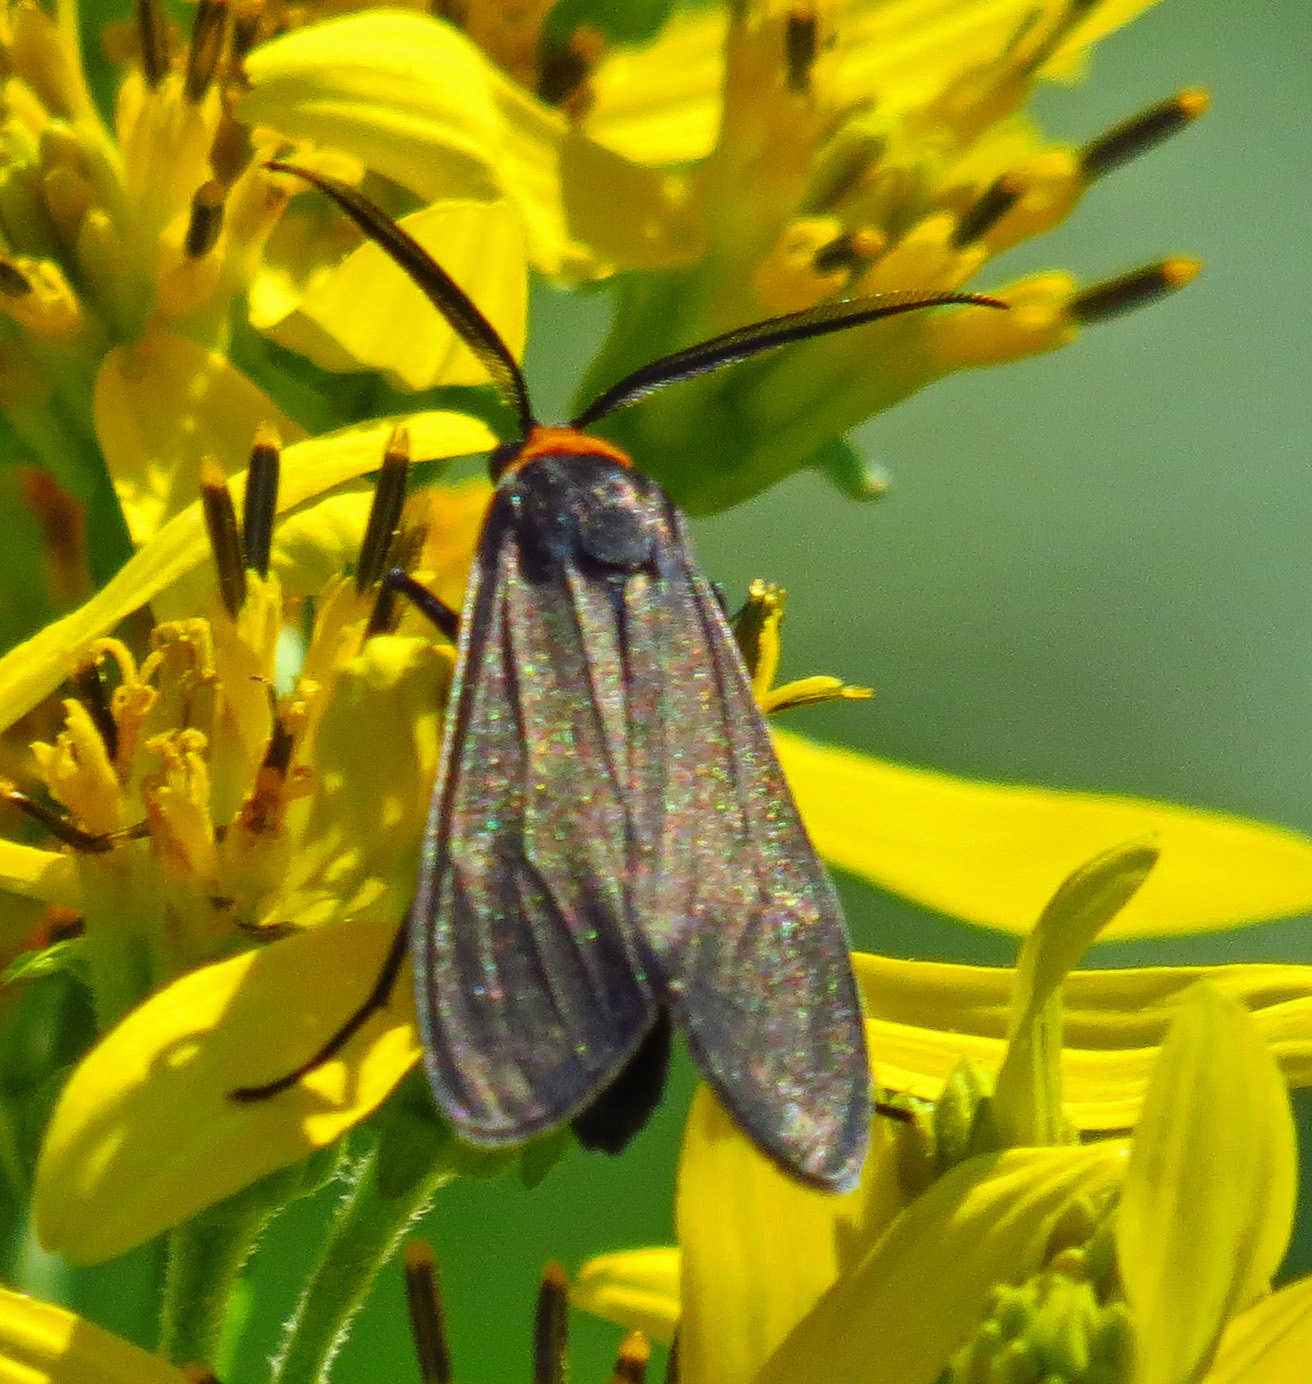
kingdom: Animalia
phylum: Arthropoda
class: Insecta
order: Lepidoptera
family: Erebidae
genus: Cisseps
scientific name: Cisseps fulvicollis
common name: Yellow-collared scape moth
